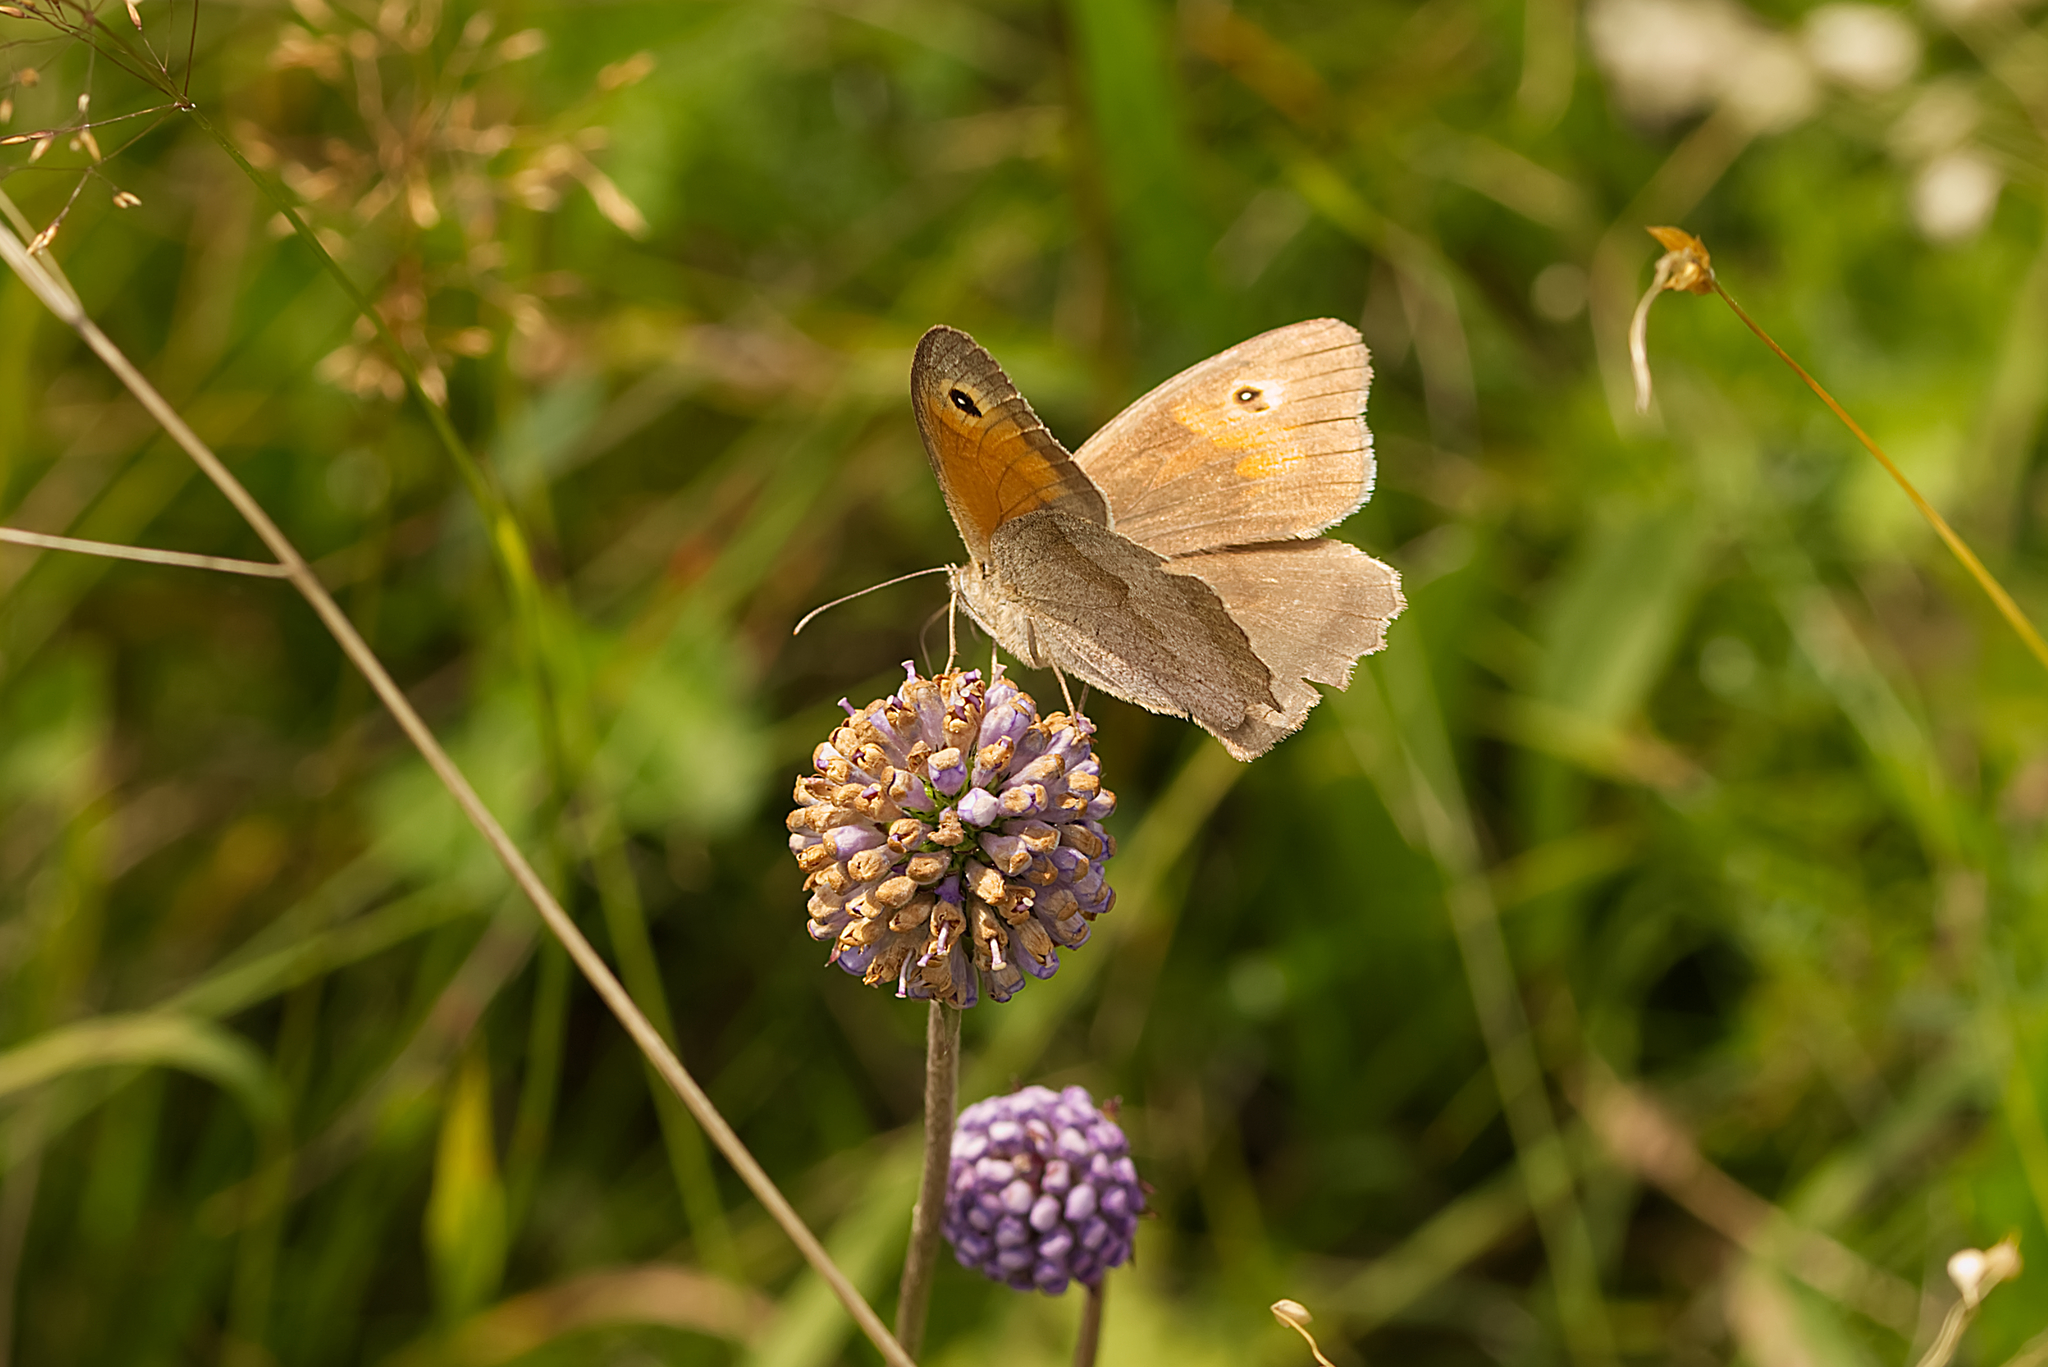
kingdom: Animalia
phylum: Arthropoda
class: Insecta
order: Lepidoptera
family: Nymphalidae
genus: Maniola
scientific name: Maniola jurtina
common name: Meadow brown
